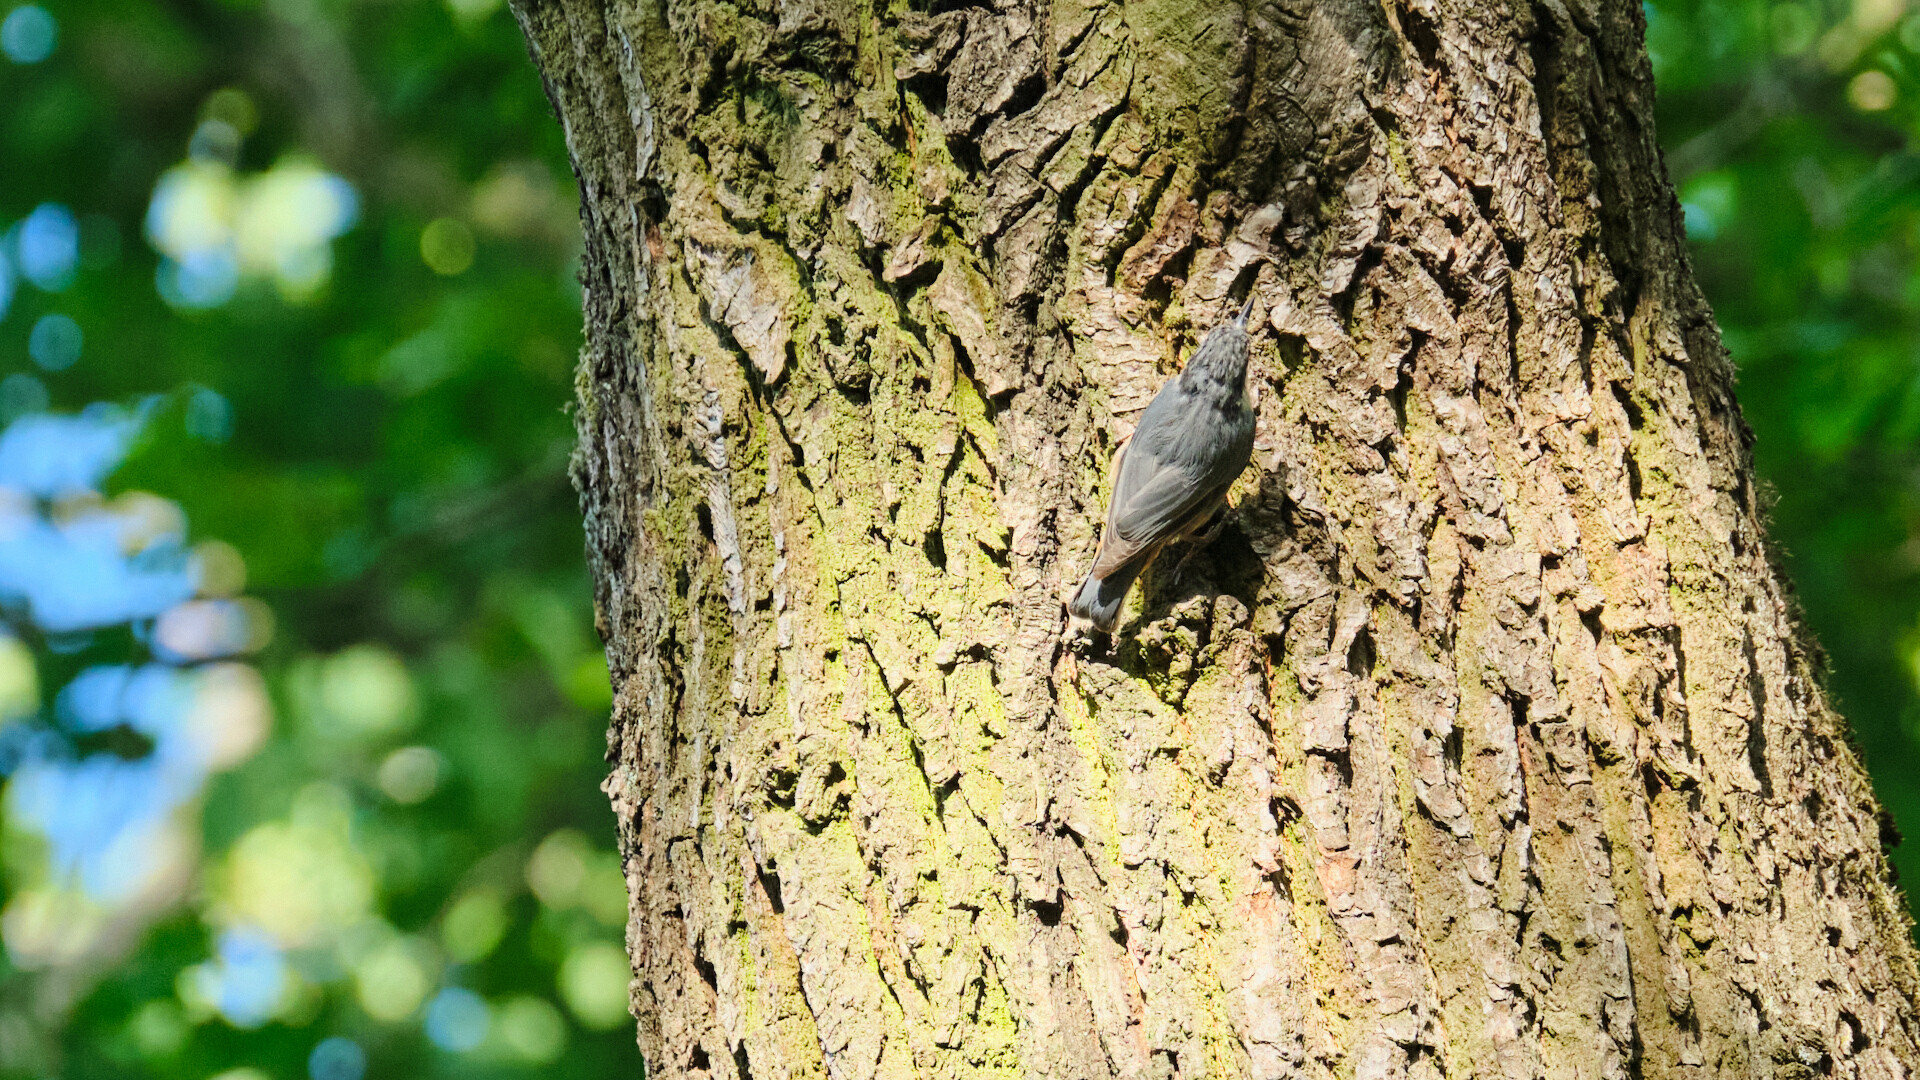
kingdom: Animalia
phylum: Chordata
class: Aves
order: Passeriformes
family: Sittidae
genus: Sitta
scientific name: Sitta europaea
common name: Eurasian nuthatch
